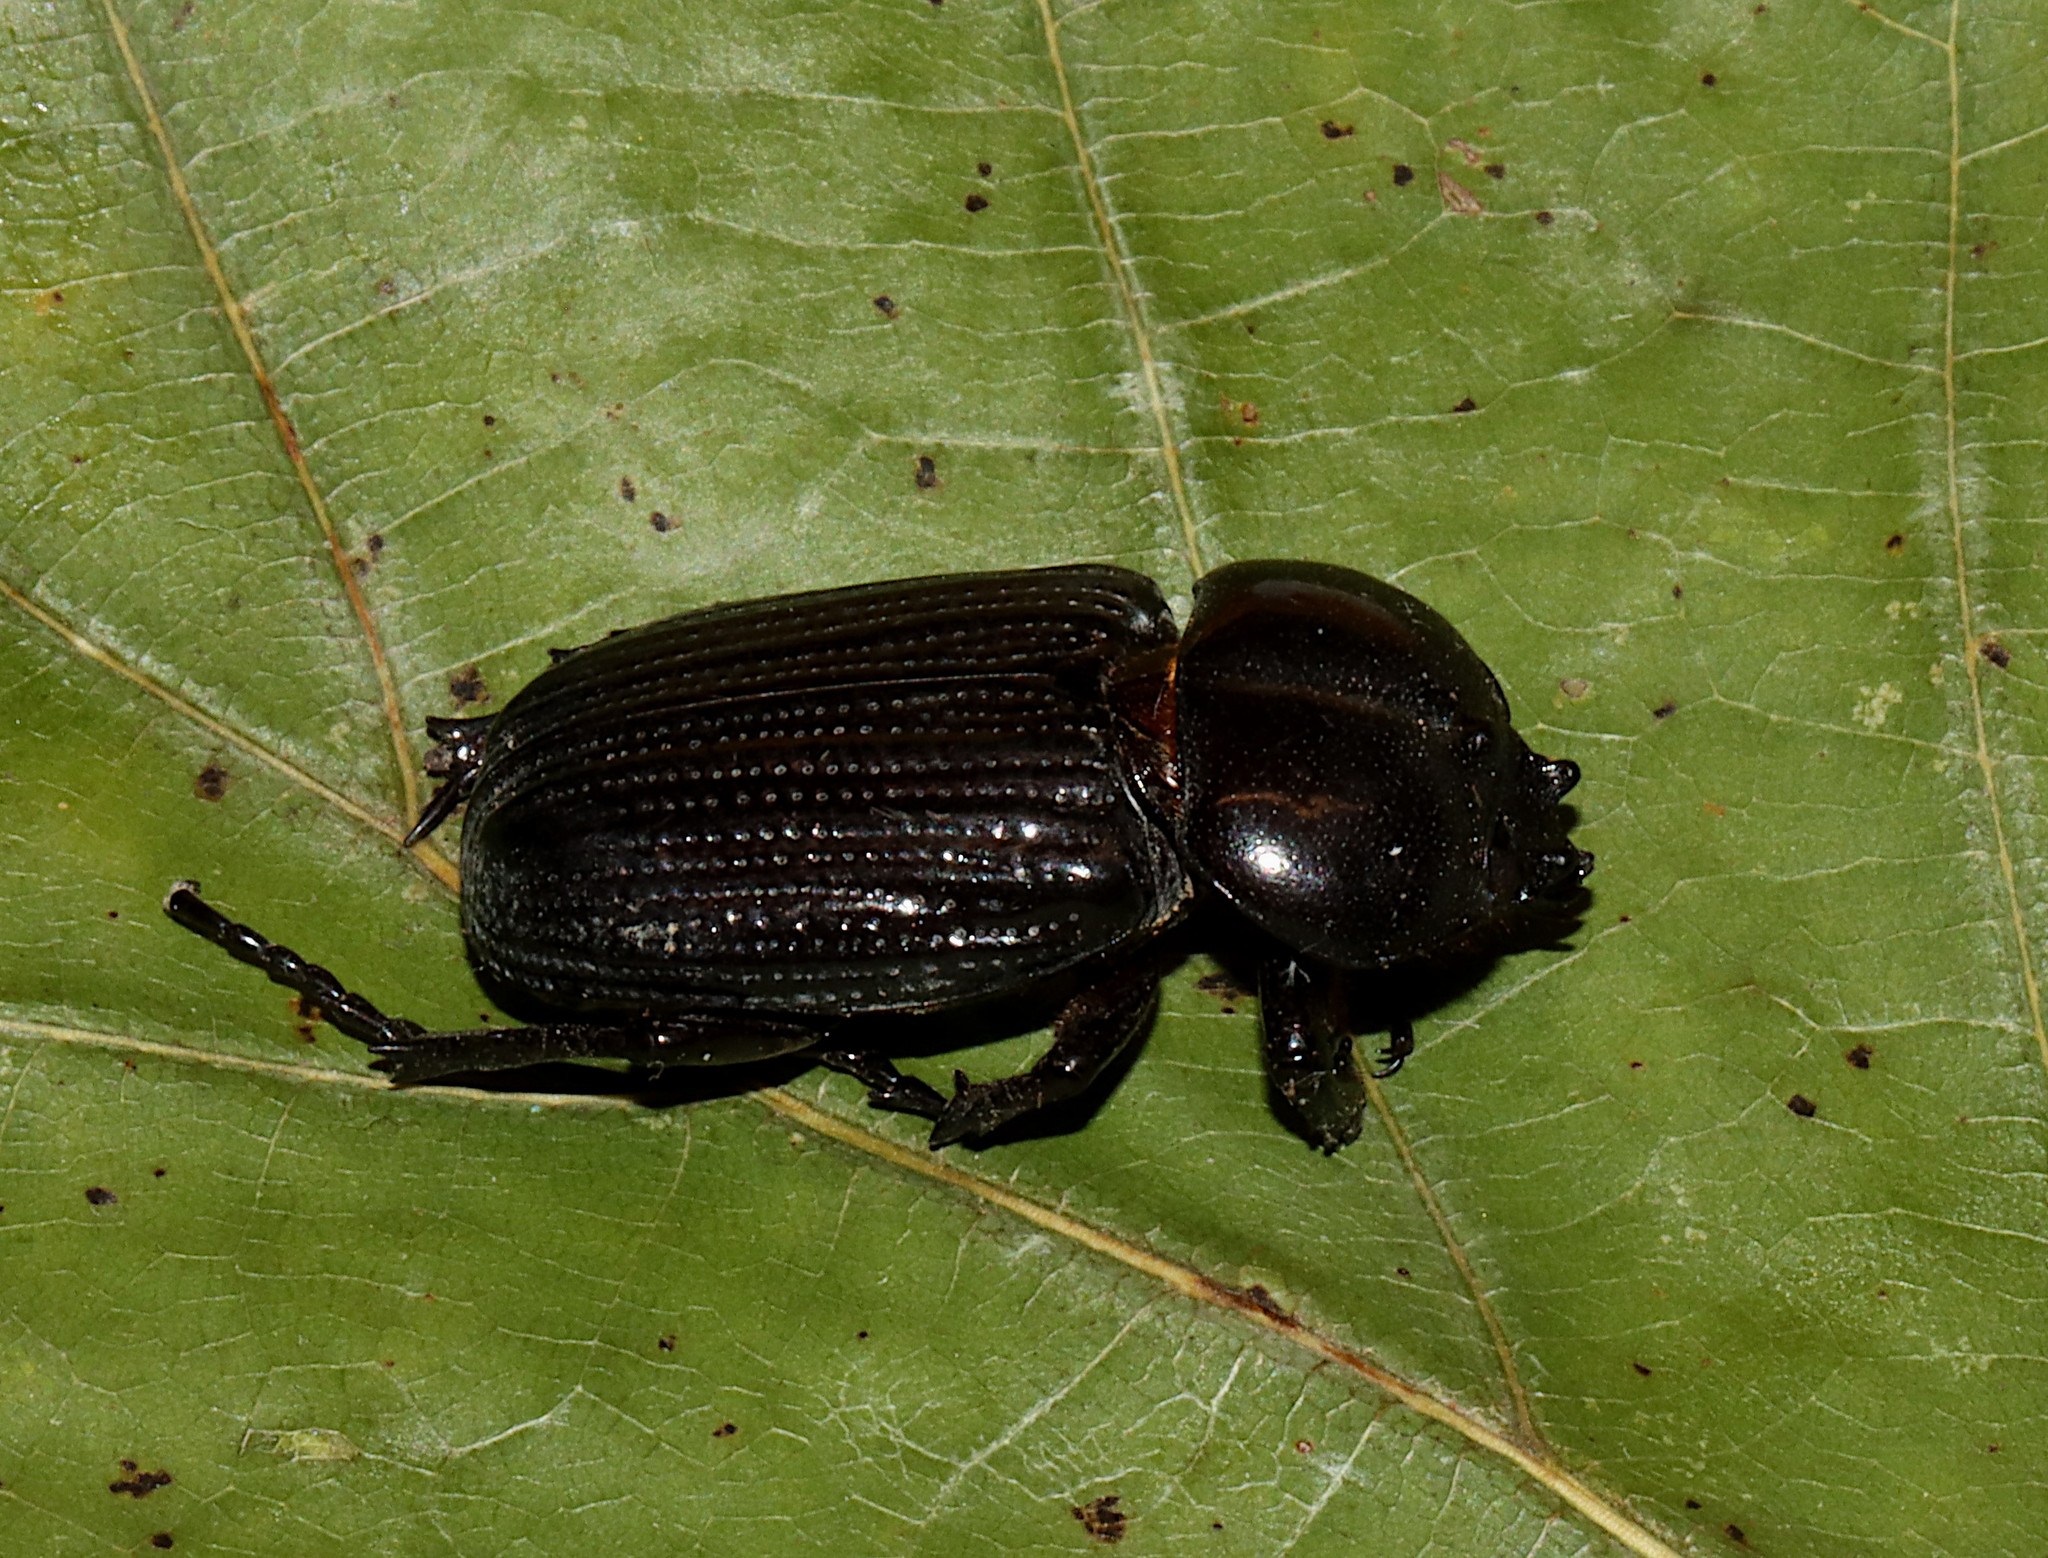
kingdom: Animalia
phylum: Arthropoda
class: Insecta
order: Coleoptera
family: Scarabaeidae
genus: Phileurus
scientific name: Phileurus valgus
